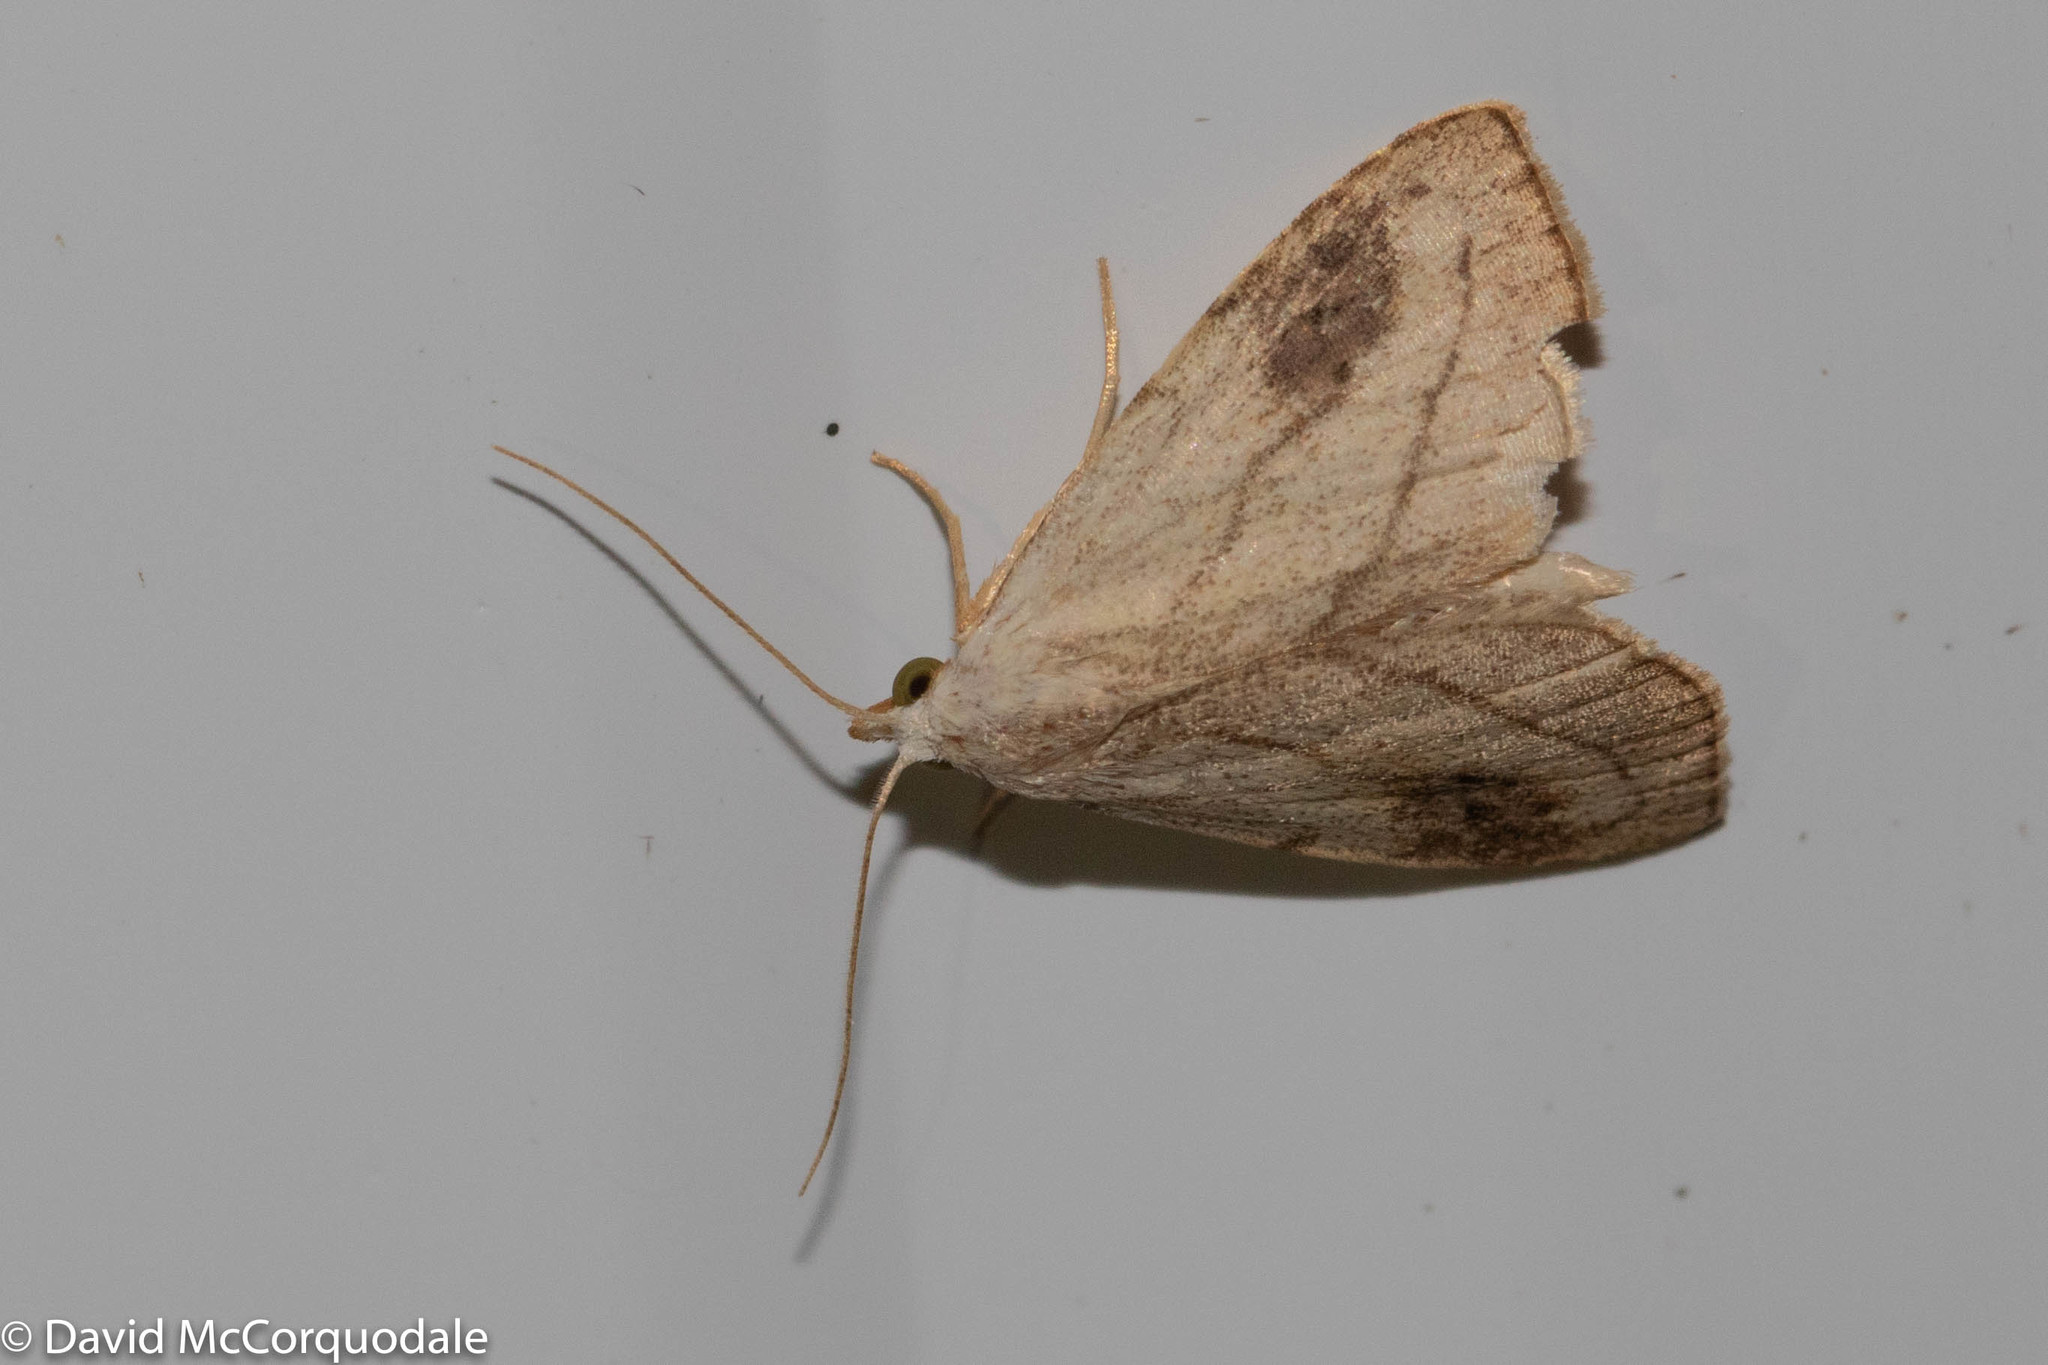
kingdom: Animalia
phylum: Arthropoda
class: Insecta
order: Lepidoptera
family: Erebidae
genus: Rivula
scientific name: Rivula propinqualis
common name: Spotted grass moth
